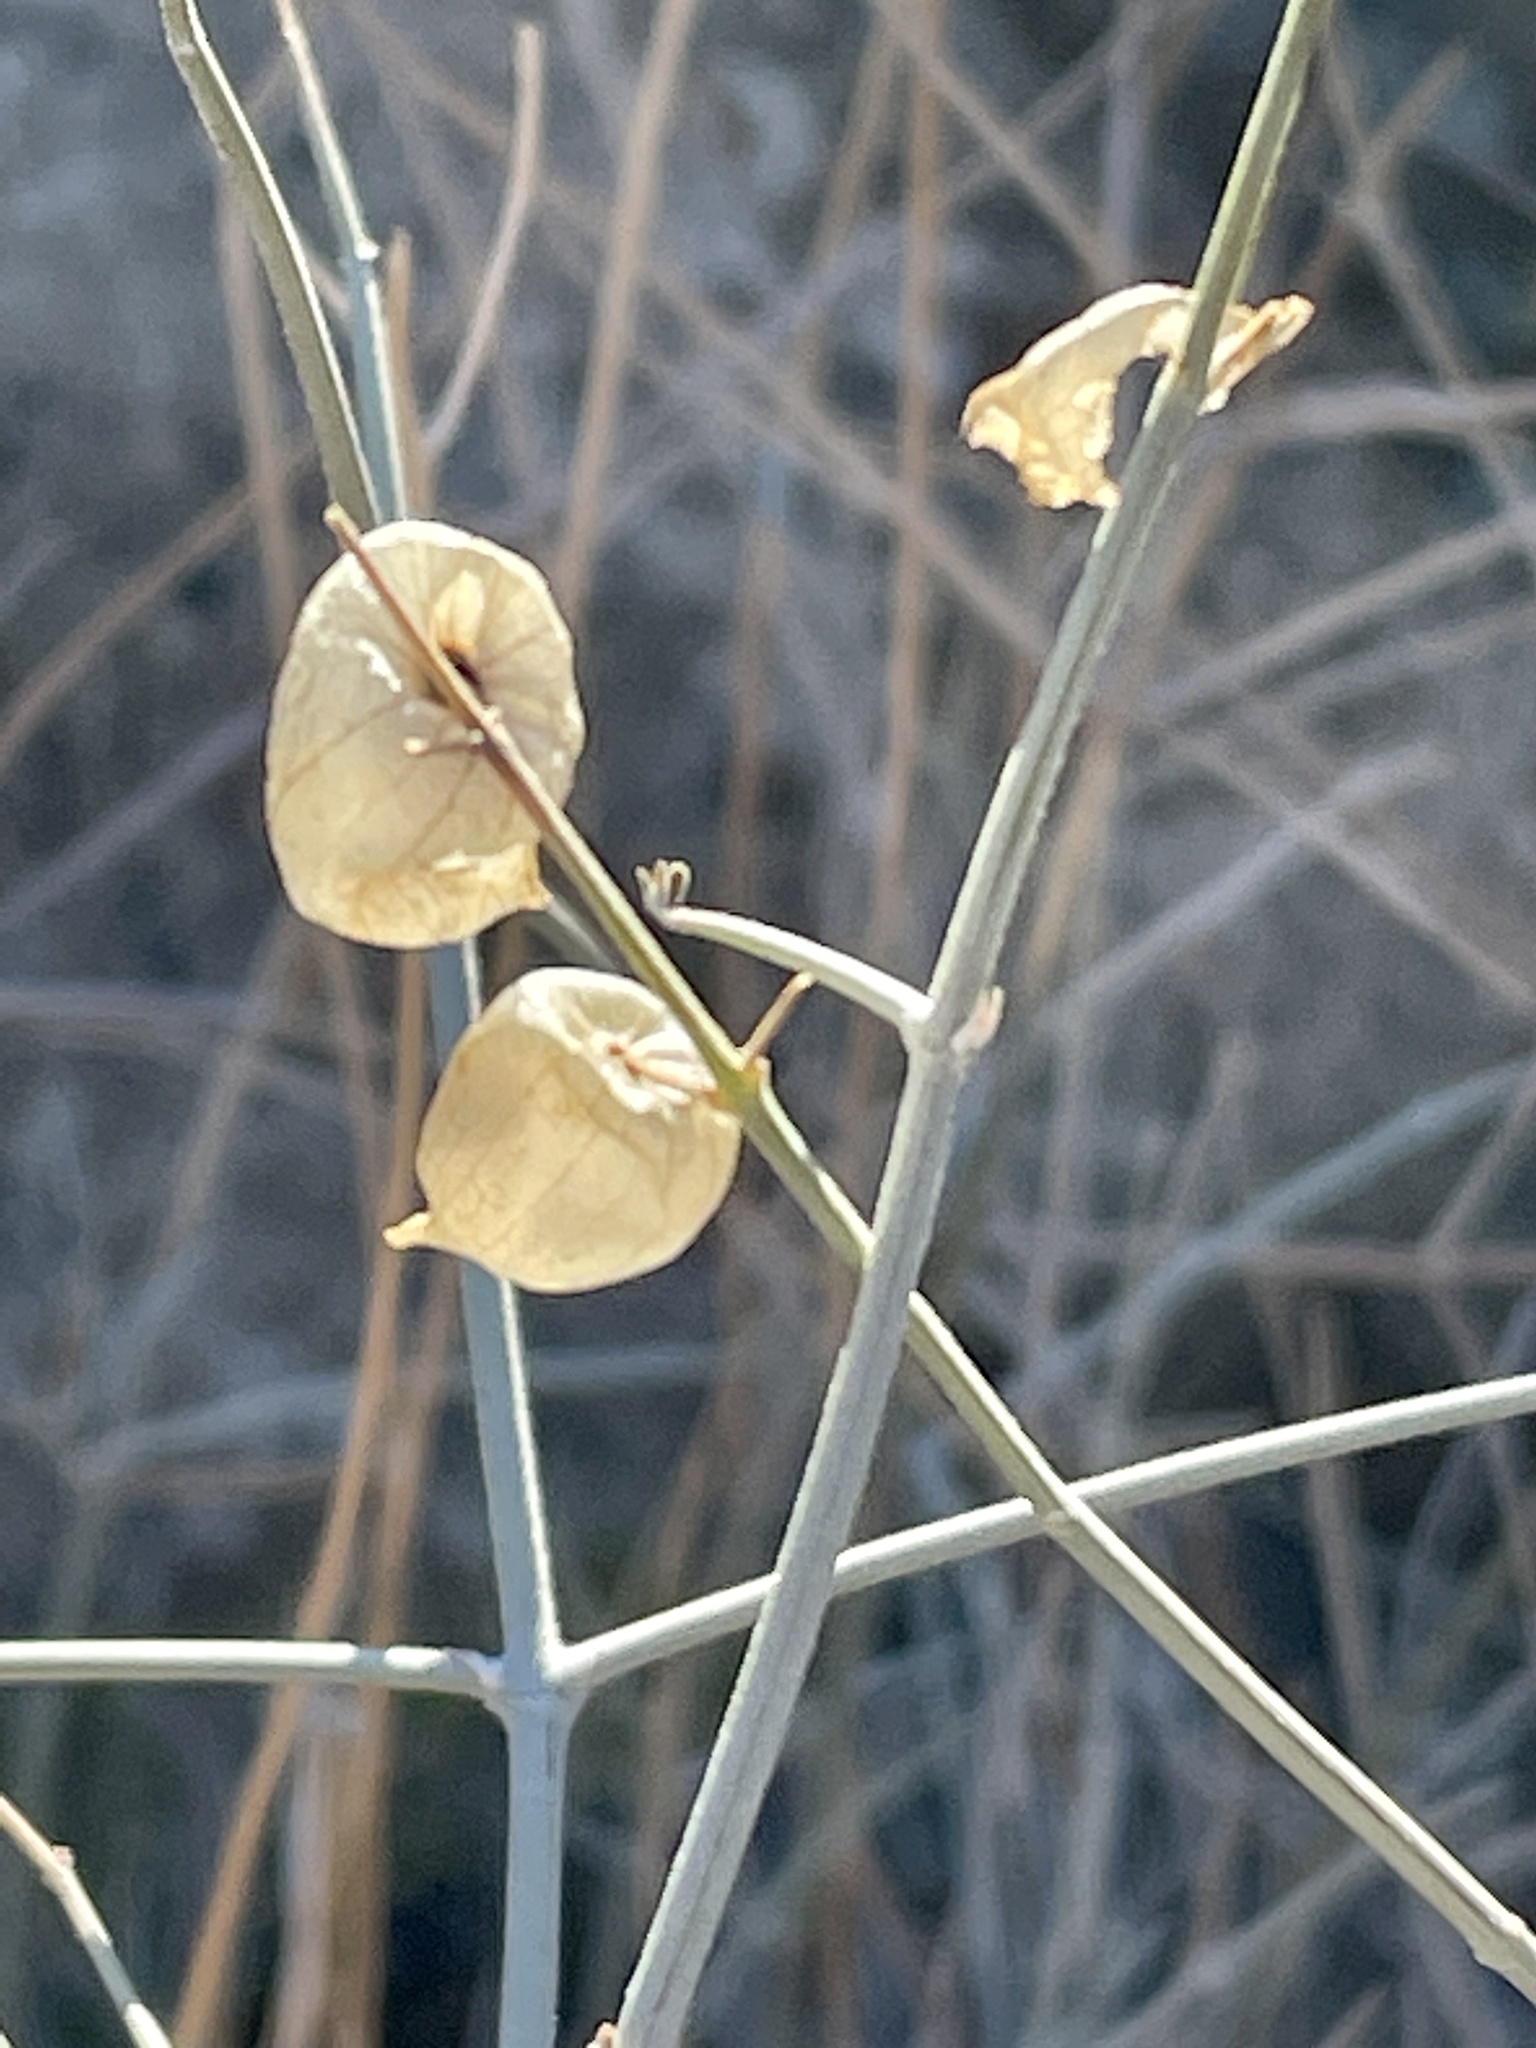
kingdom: Plantae
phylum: Tracheophyta
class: Magnoliopsida
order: Lamiales
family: Lamiaceae
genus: Scutellaria
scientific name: Scutellaria mexicana
